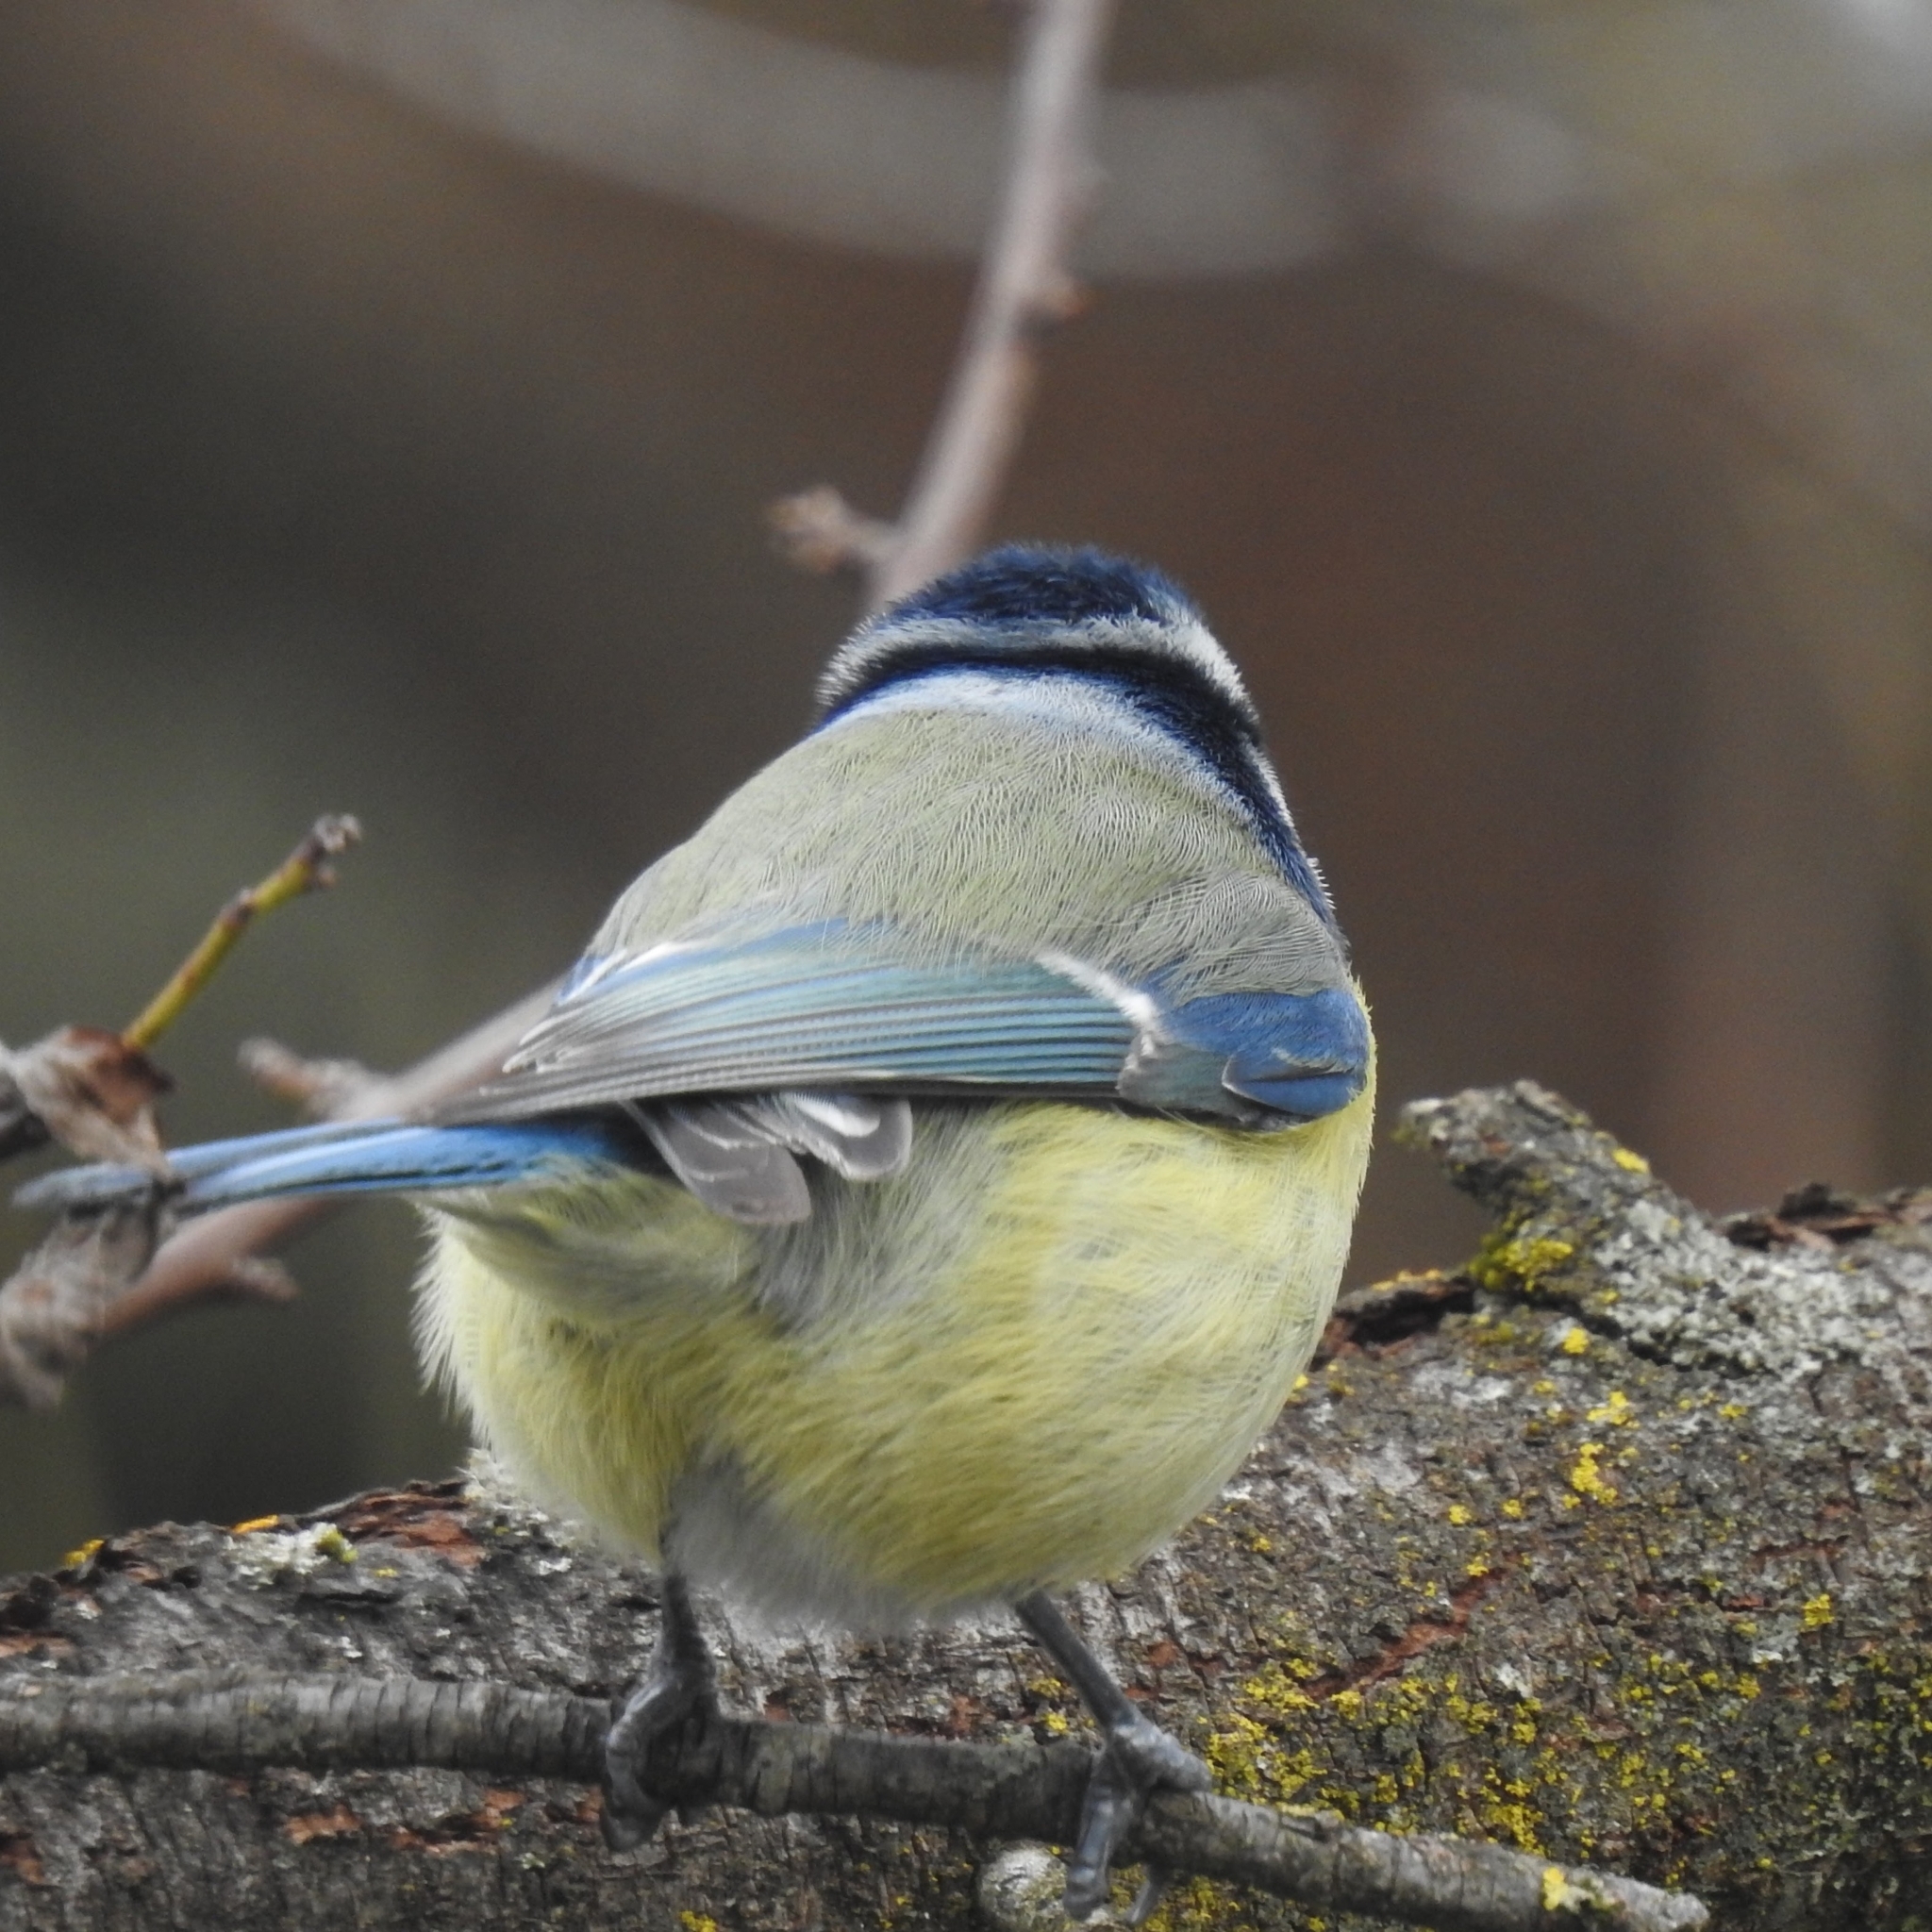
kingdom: Animalia
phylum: Chordata
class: Aves
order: Passeriformes
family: Paridae
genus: Cyanistes
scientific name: Cyanistes caeruleus
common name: Eurasian blue tit
